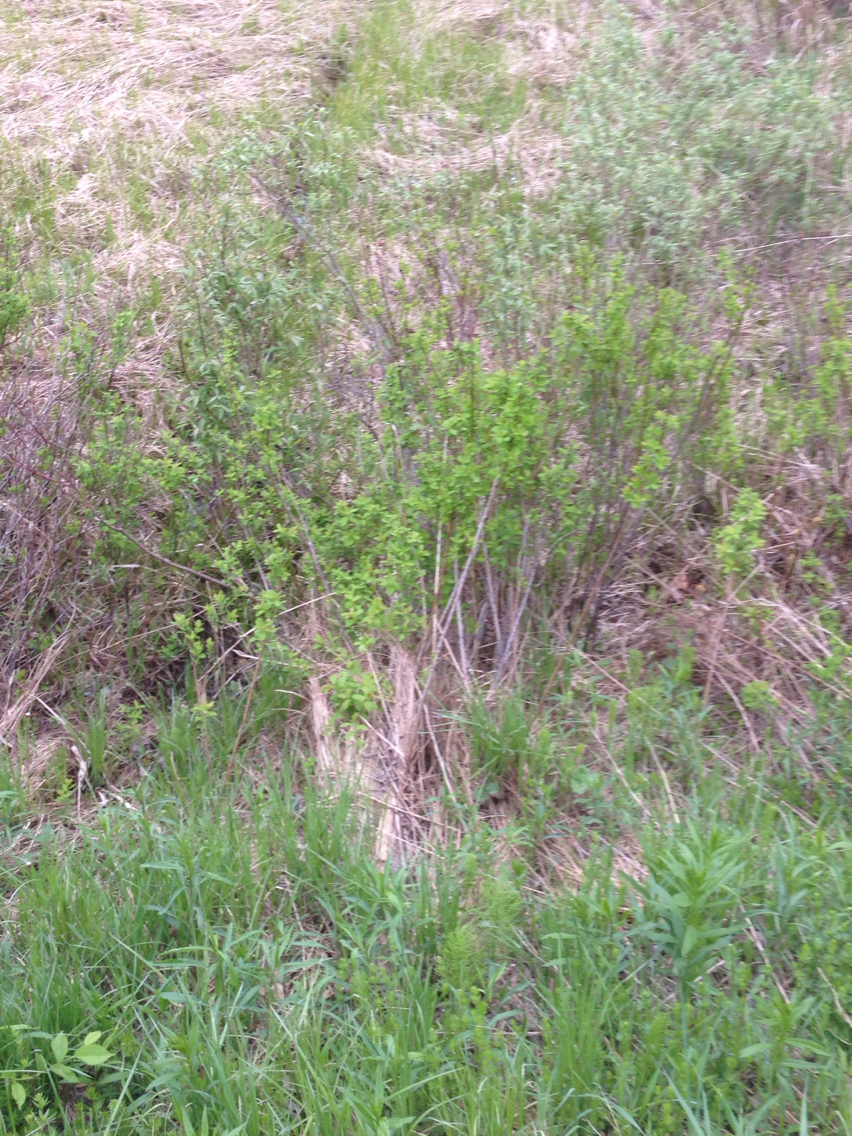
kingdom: Plantae
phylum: Tracheophyta
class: Magnoliopsida
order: Rosales
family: Rosaceae
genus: Spiraea
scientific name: Spiraea alba
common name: Pale bridewort
